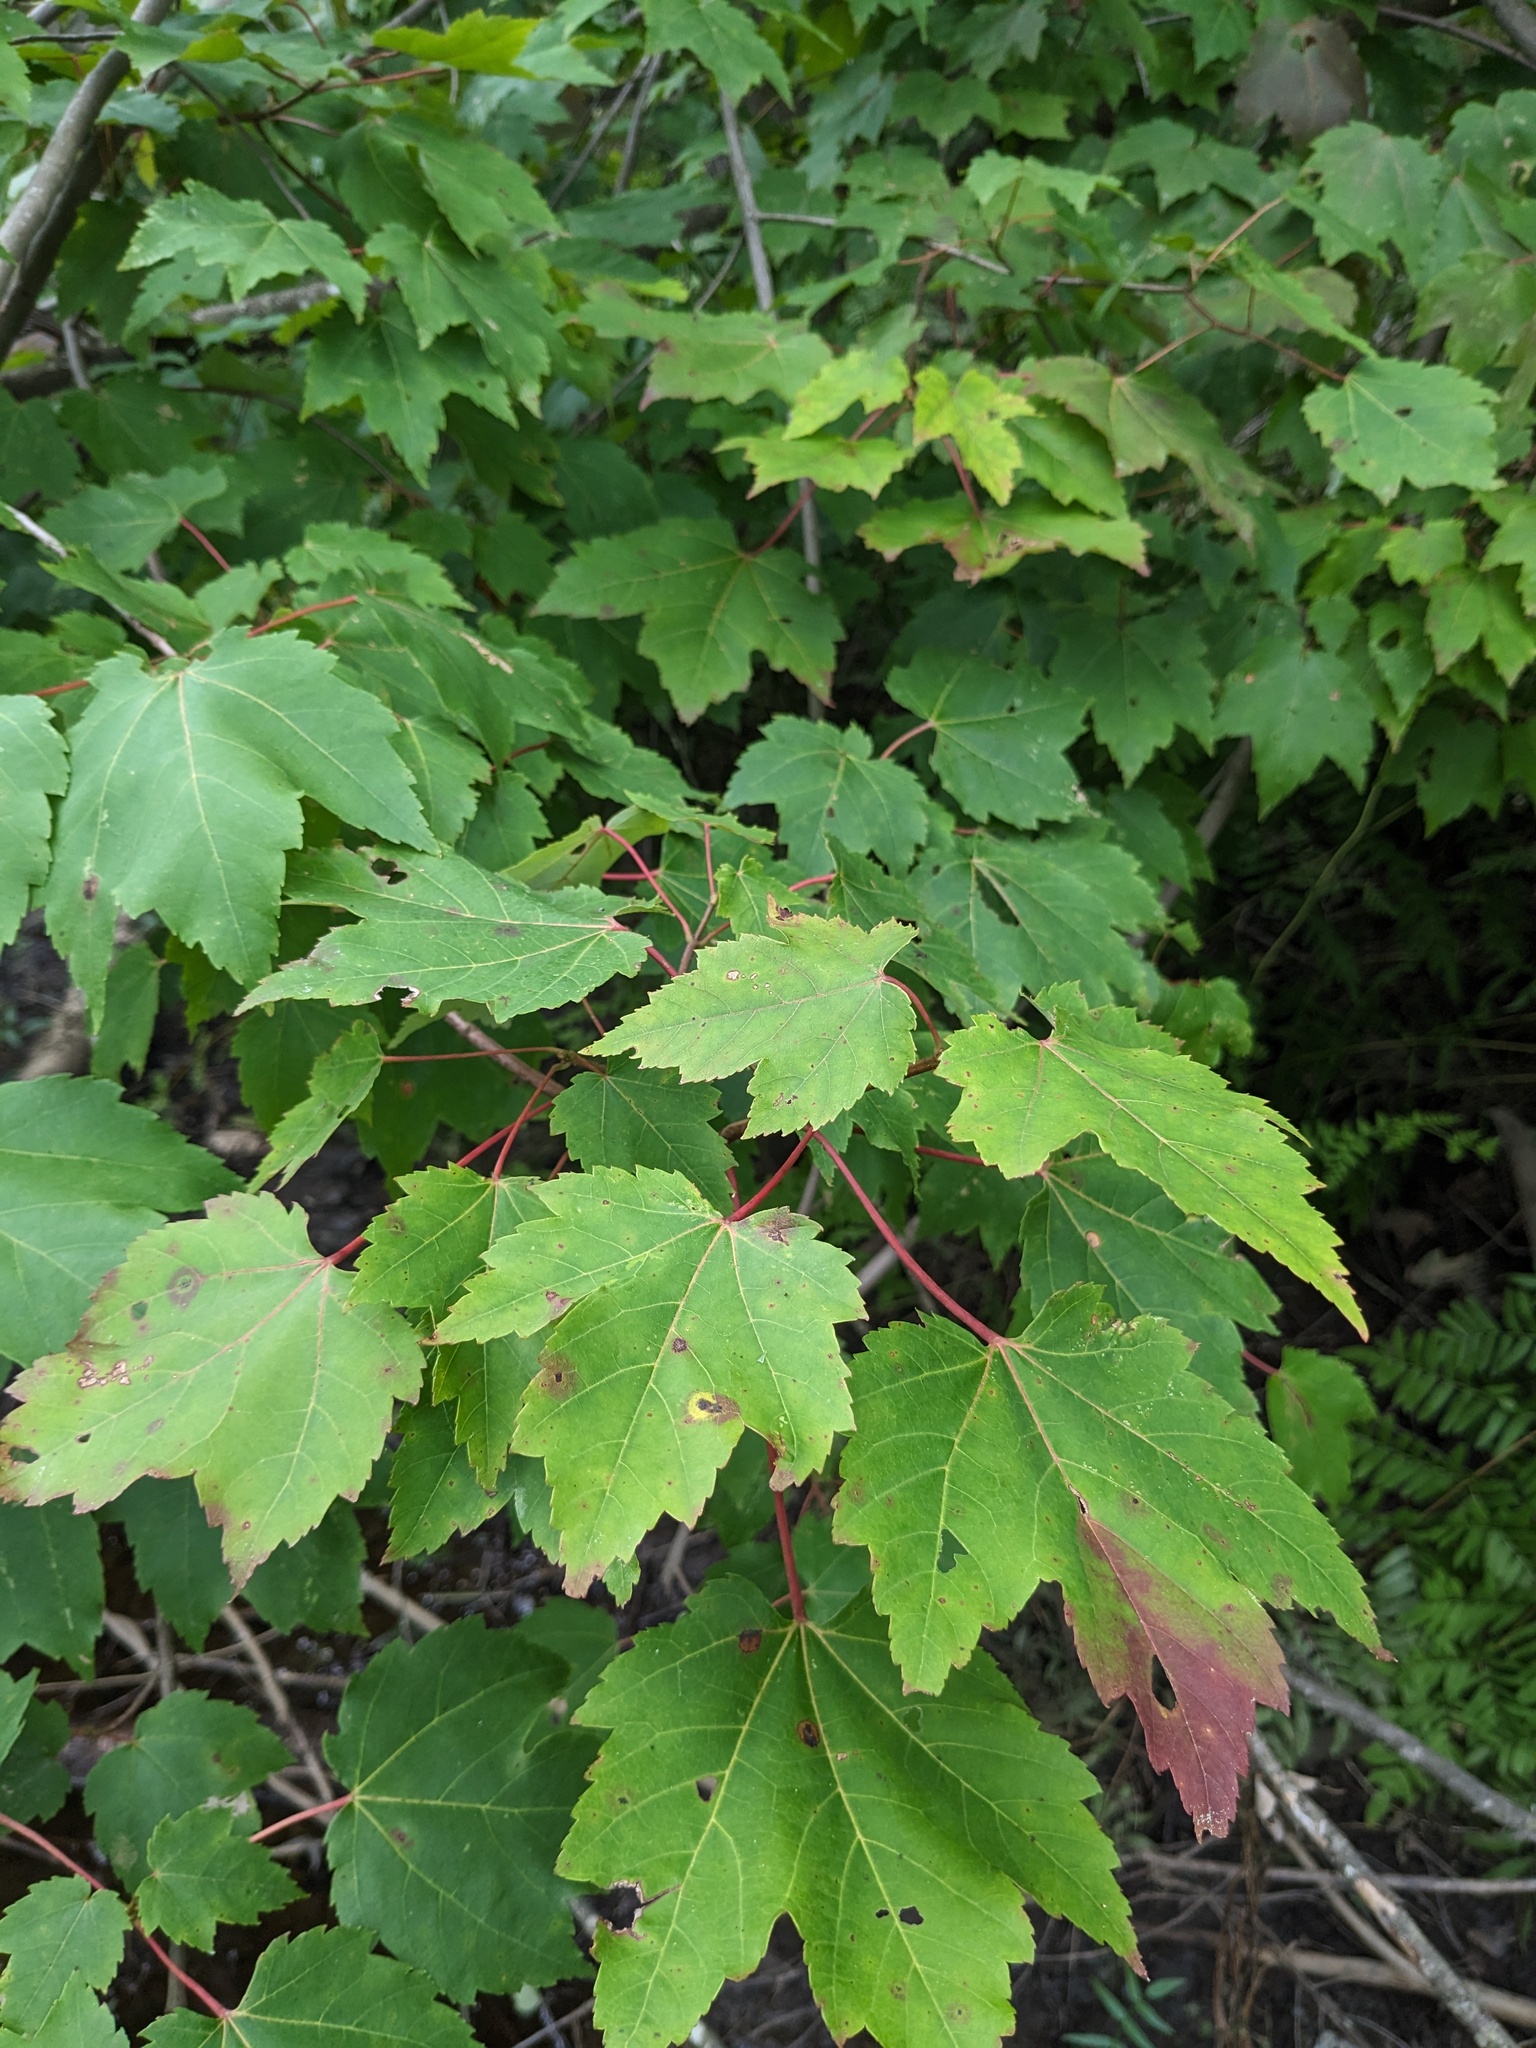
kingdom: Plantae
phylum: Tracheophyta
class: Magnoliopsida
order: Sapindales
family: Sapindaceae
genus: Acer
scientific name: Acer rubrum
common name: Red maple
